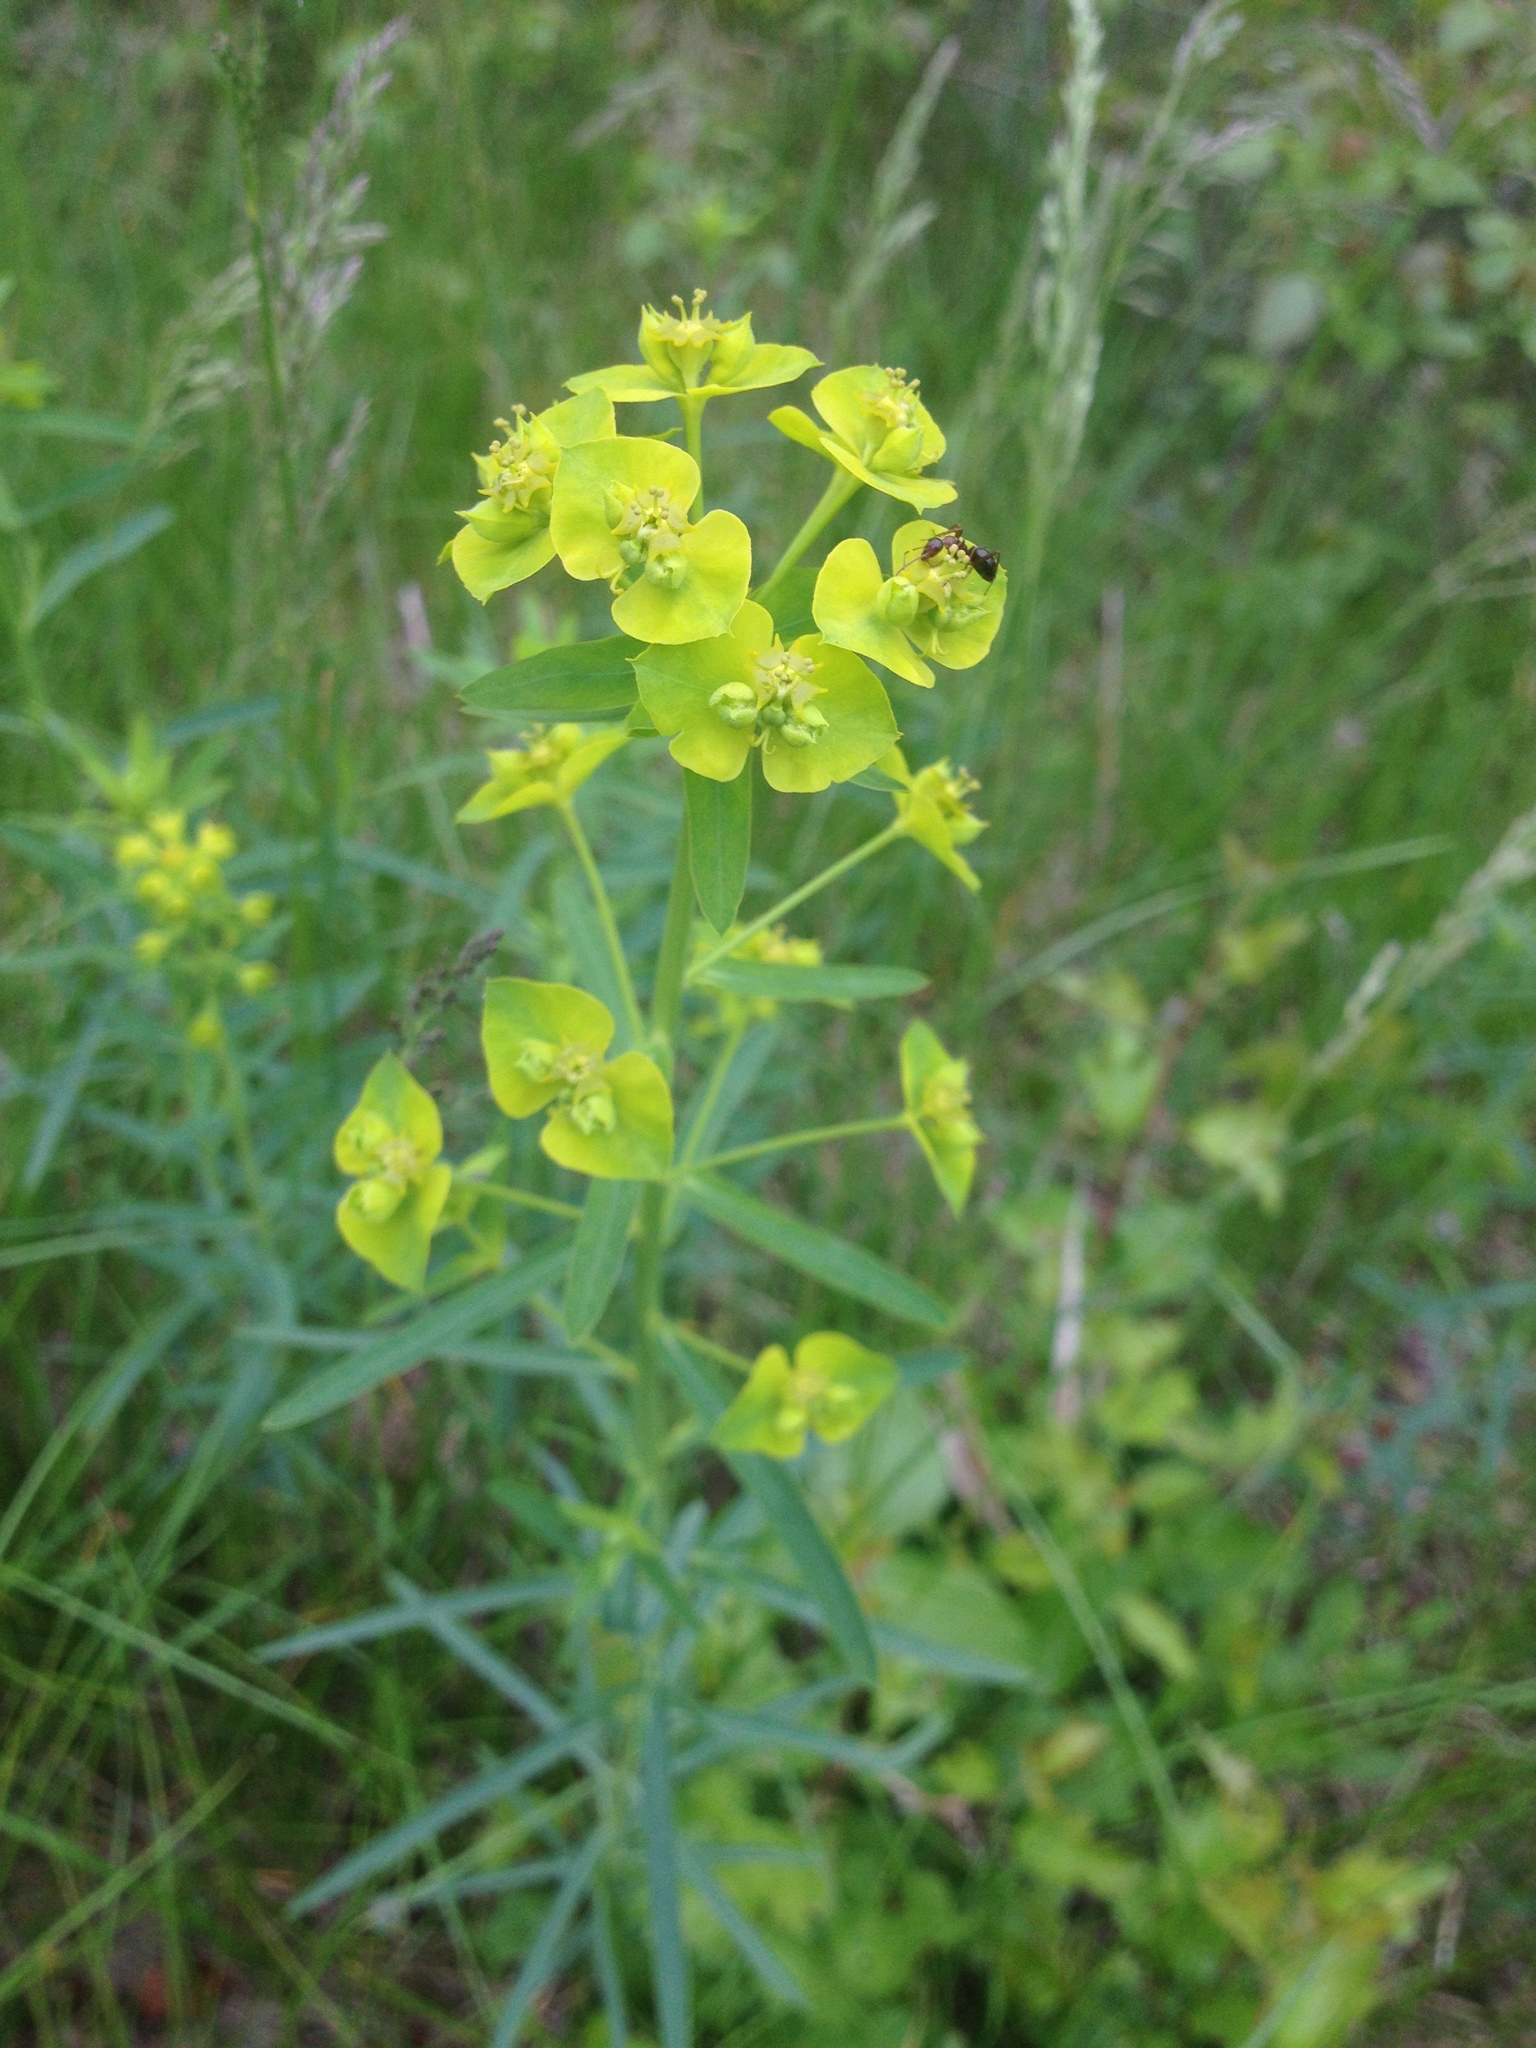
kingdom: Plantae
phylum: Tracheophyta
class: Magnoliopsida
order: Malpighiales
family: Euphorbiaceae
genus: Euphorbia
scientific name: Euphorbia virgata
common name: Leafy spurge
